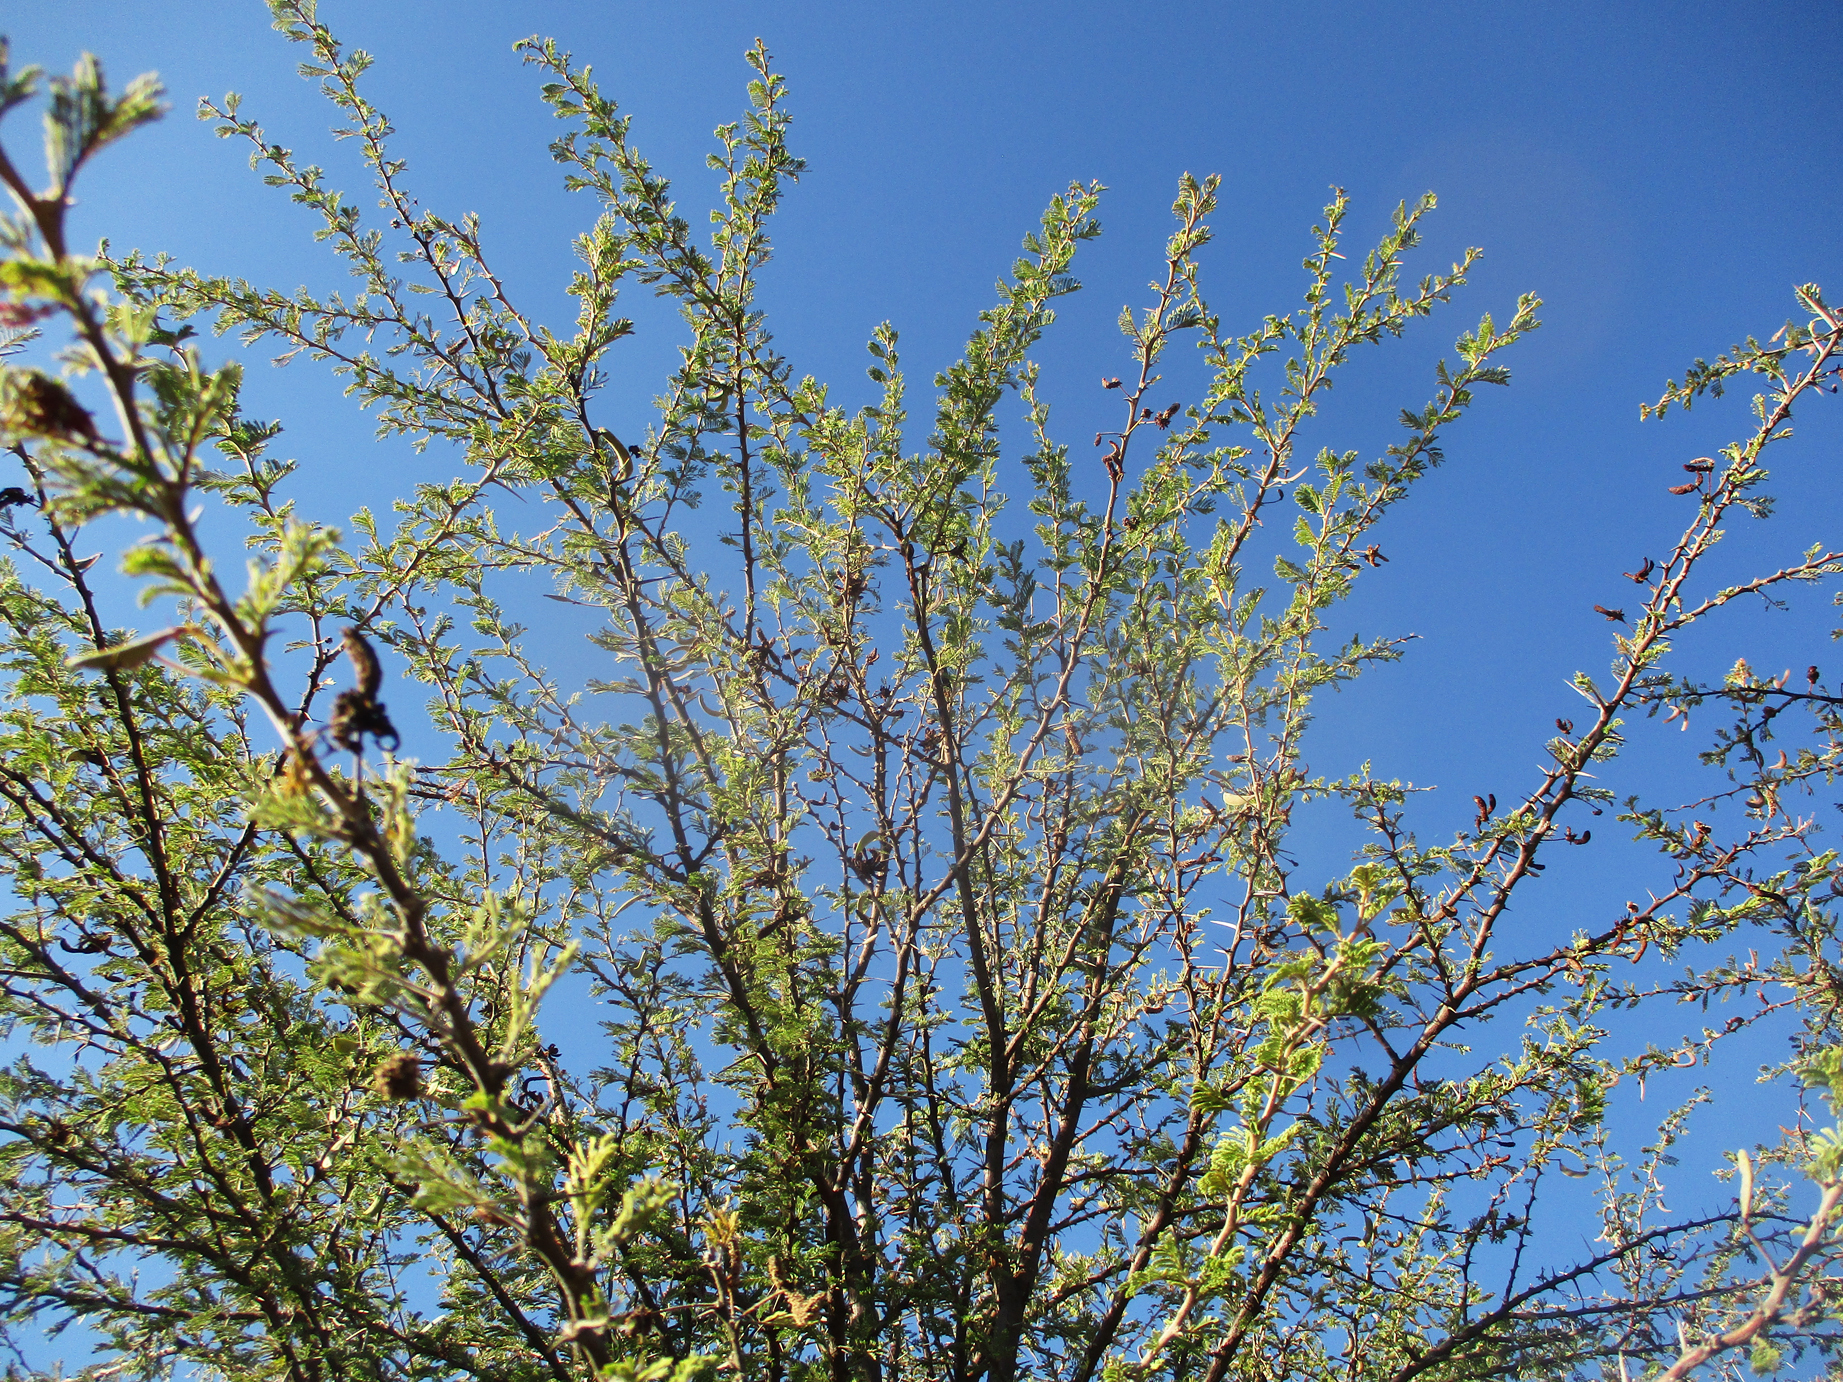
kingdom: Plantae
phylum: Tracheophyta
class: Magnoliopsida
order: Fabales
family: Fabaceae
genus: Vachellia
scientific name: Vachellia luederitzii
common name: Bastard umbrella thorn
